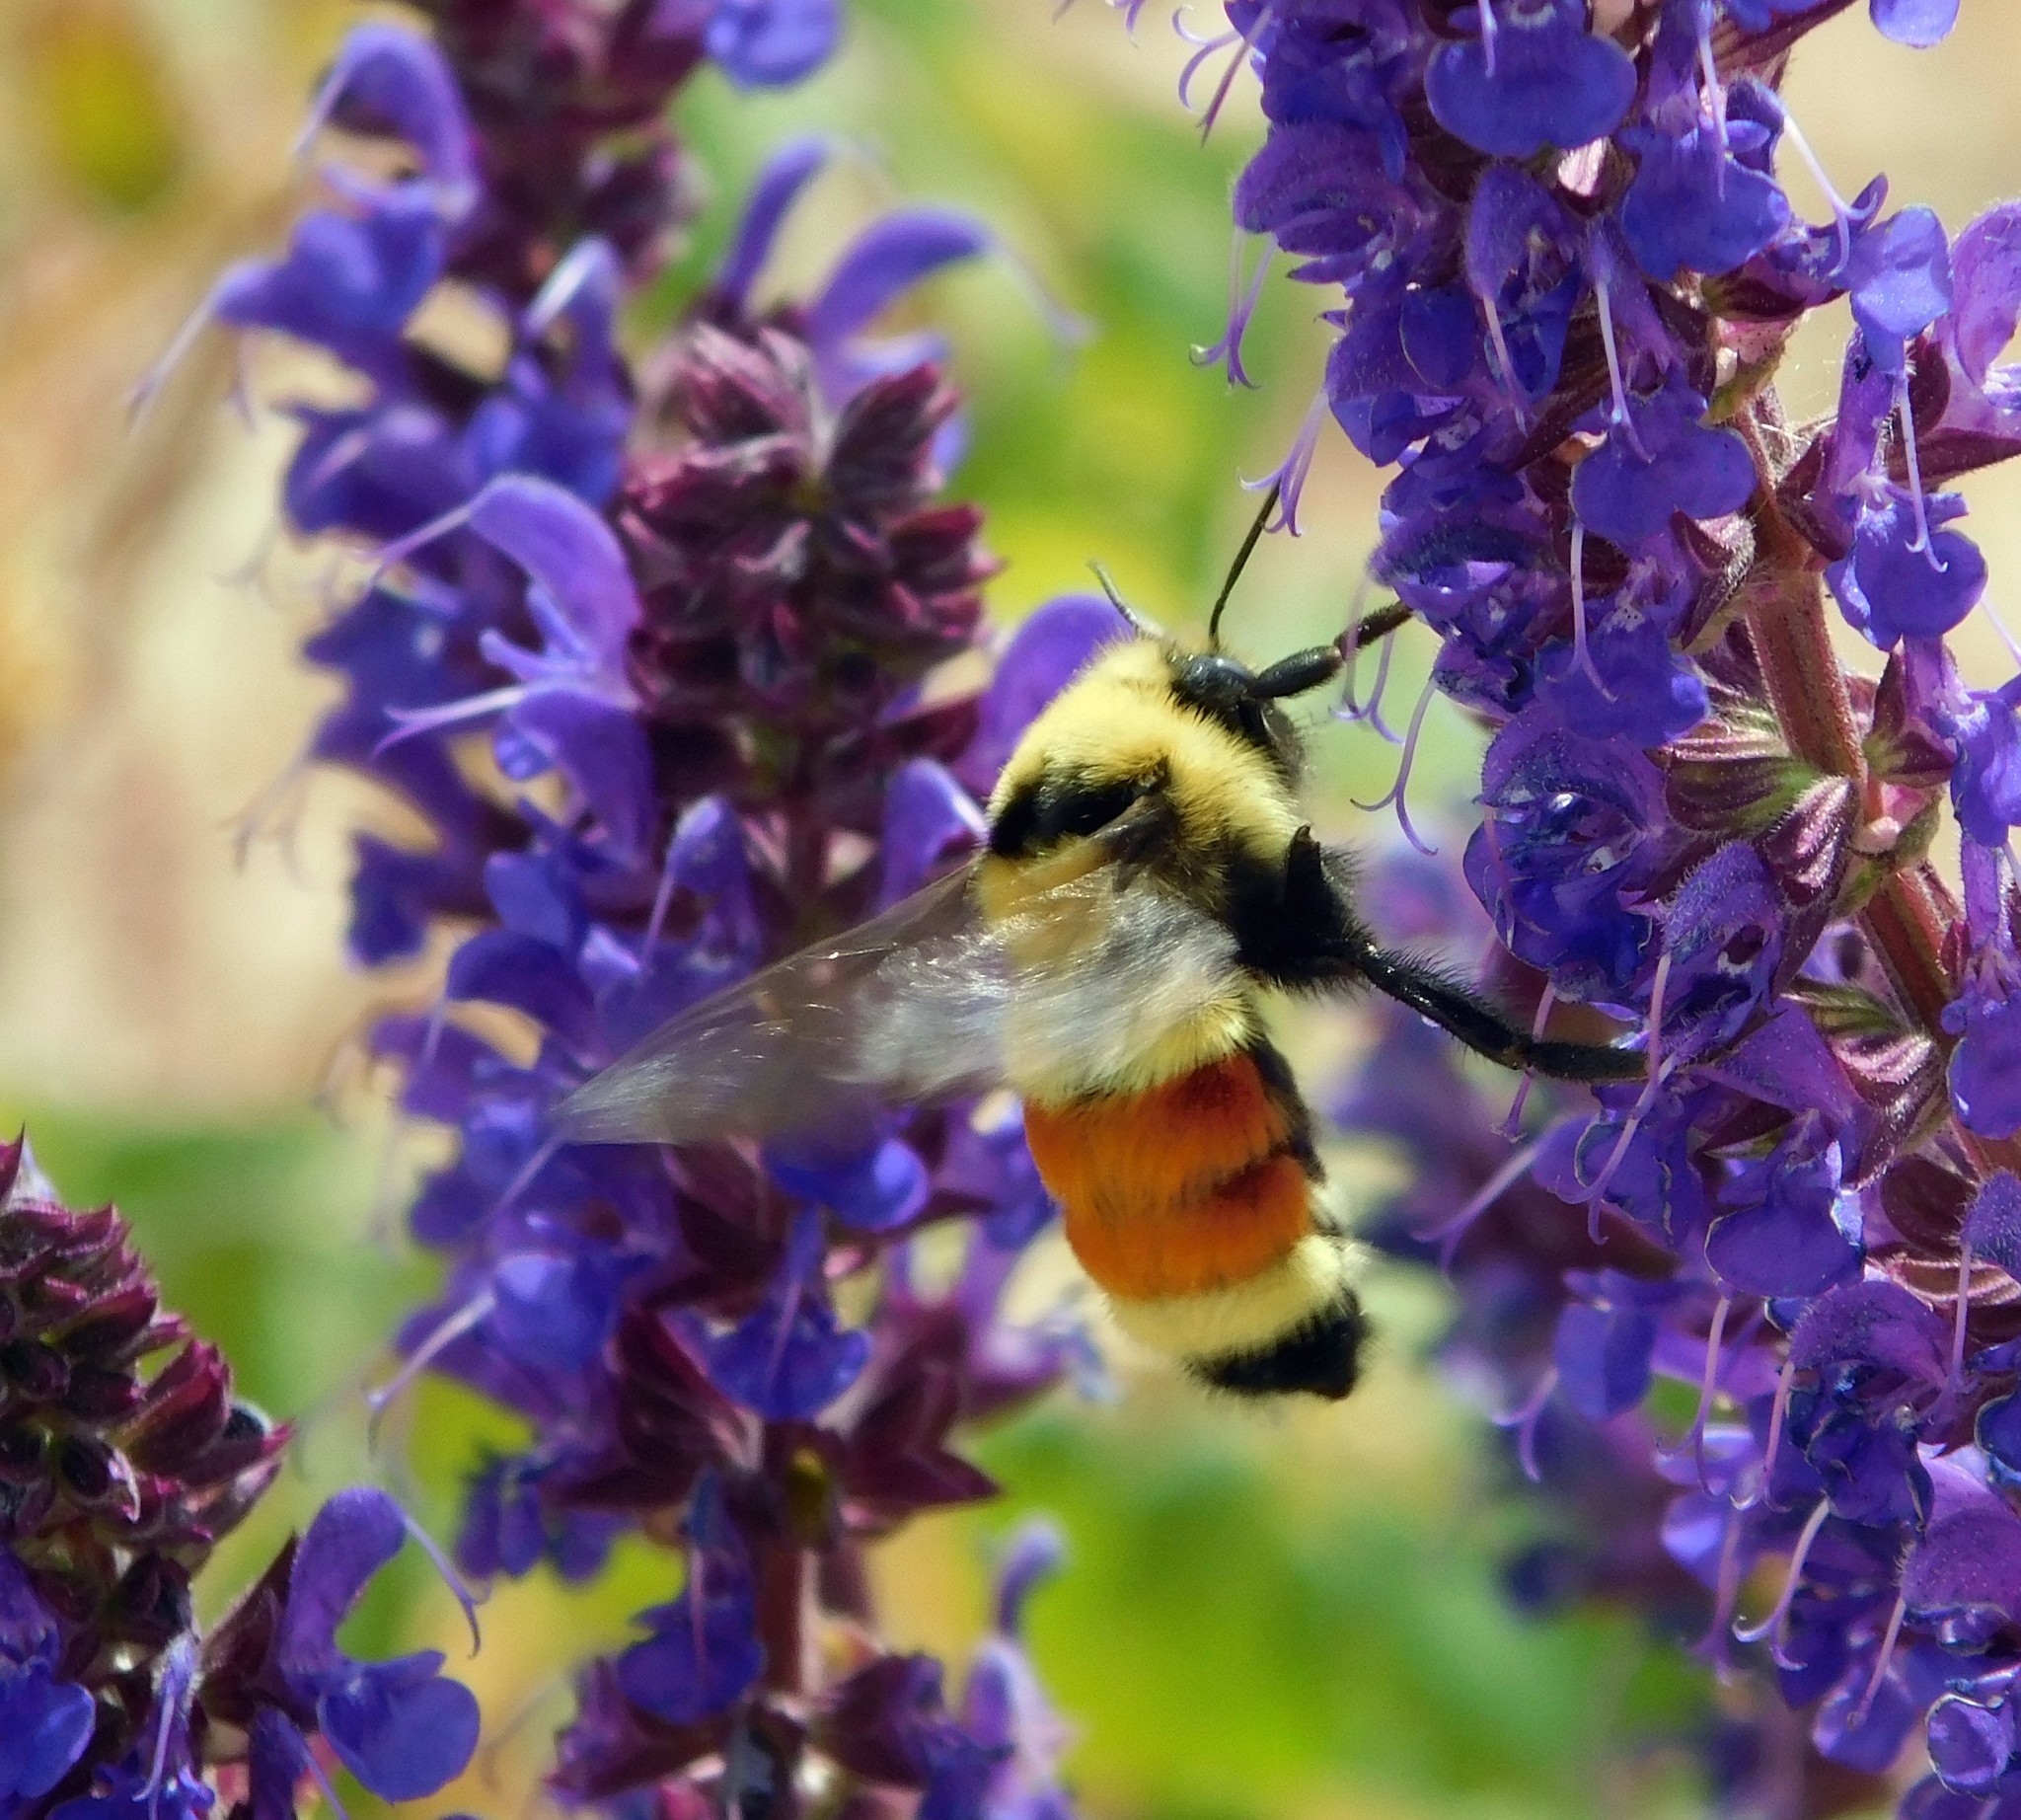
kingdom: Animalia
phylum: Arthropoda
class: Insecta
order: Hymenoptera
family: Apidae
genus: Bombus
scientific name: Bombus huntii
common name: Hunt bumble bee
